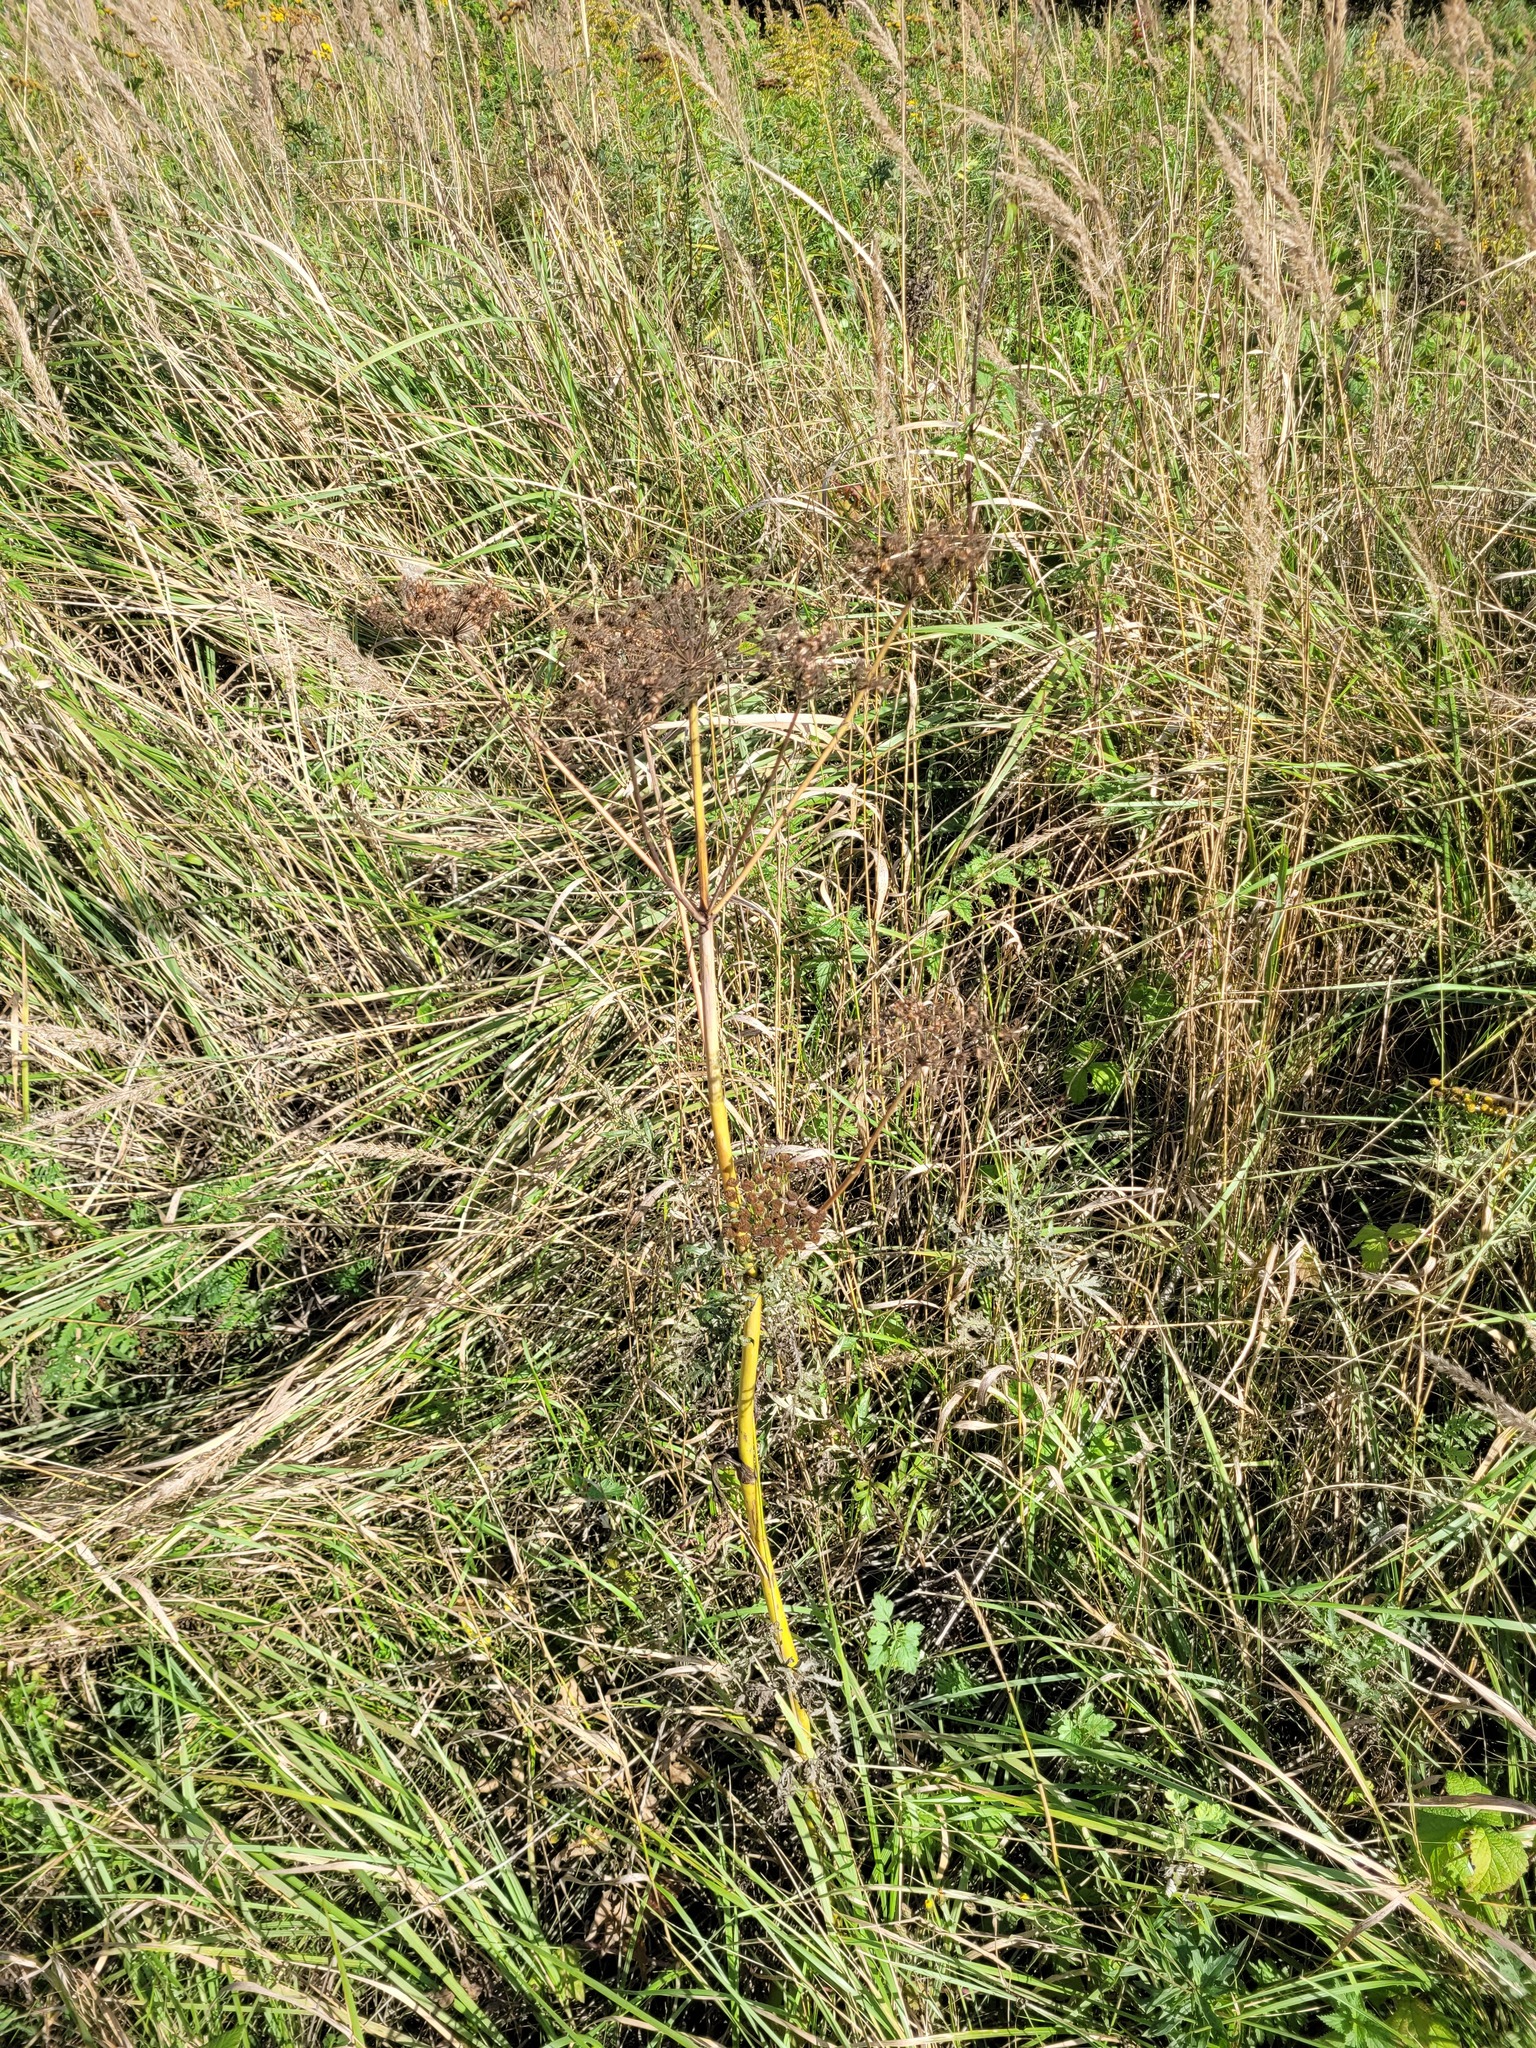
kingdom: Plantae
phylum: Tracheophyta
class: Magnoliopsida
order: Apiales
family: Apiaceae
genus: Angelica
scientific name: Angelica sylvestris
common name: Wild angelica
